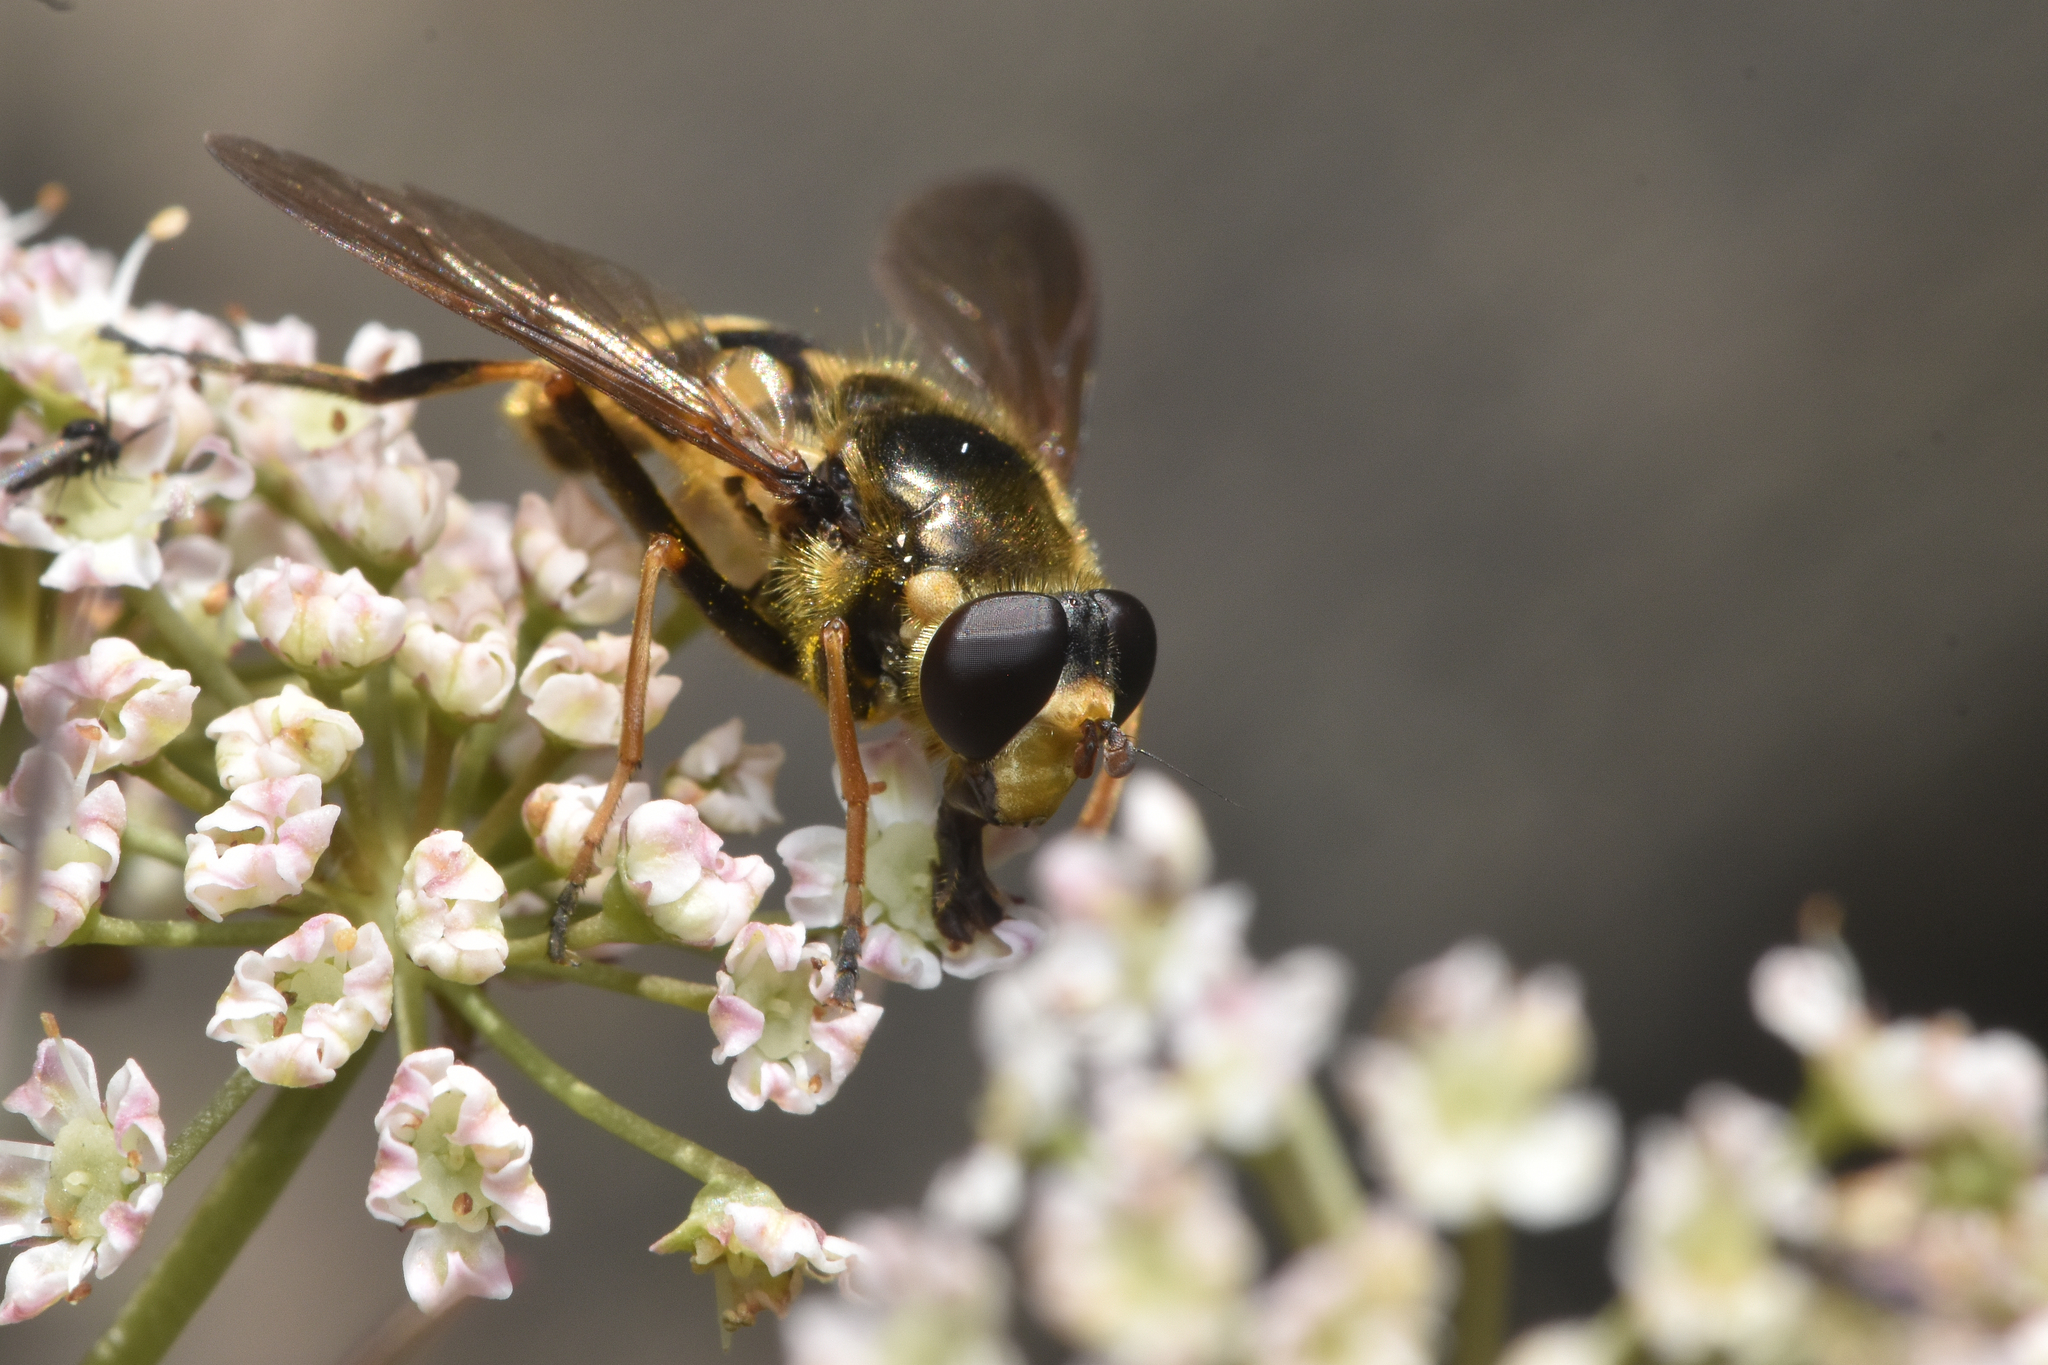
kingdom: Animalia
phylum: Arthropoda
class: Insecta
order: Diptera
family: Syrphidae
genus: Blera
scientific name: Blera scitula
